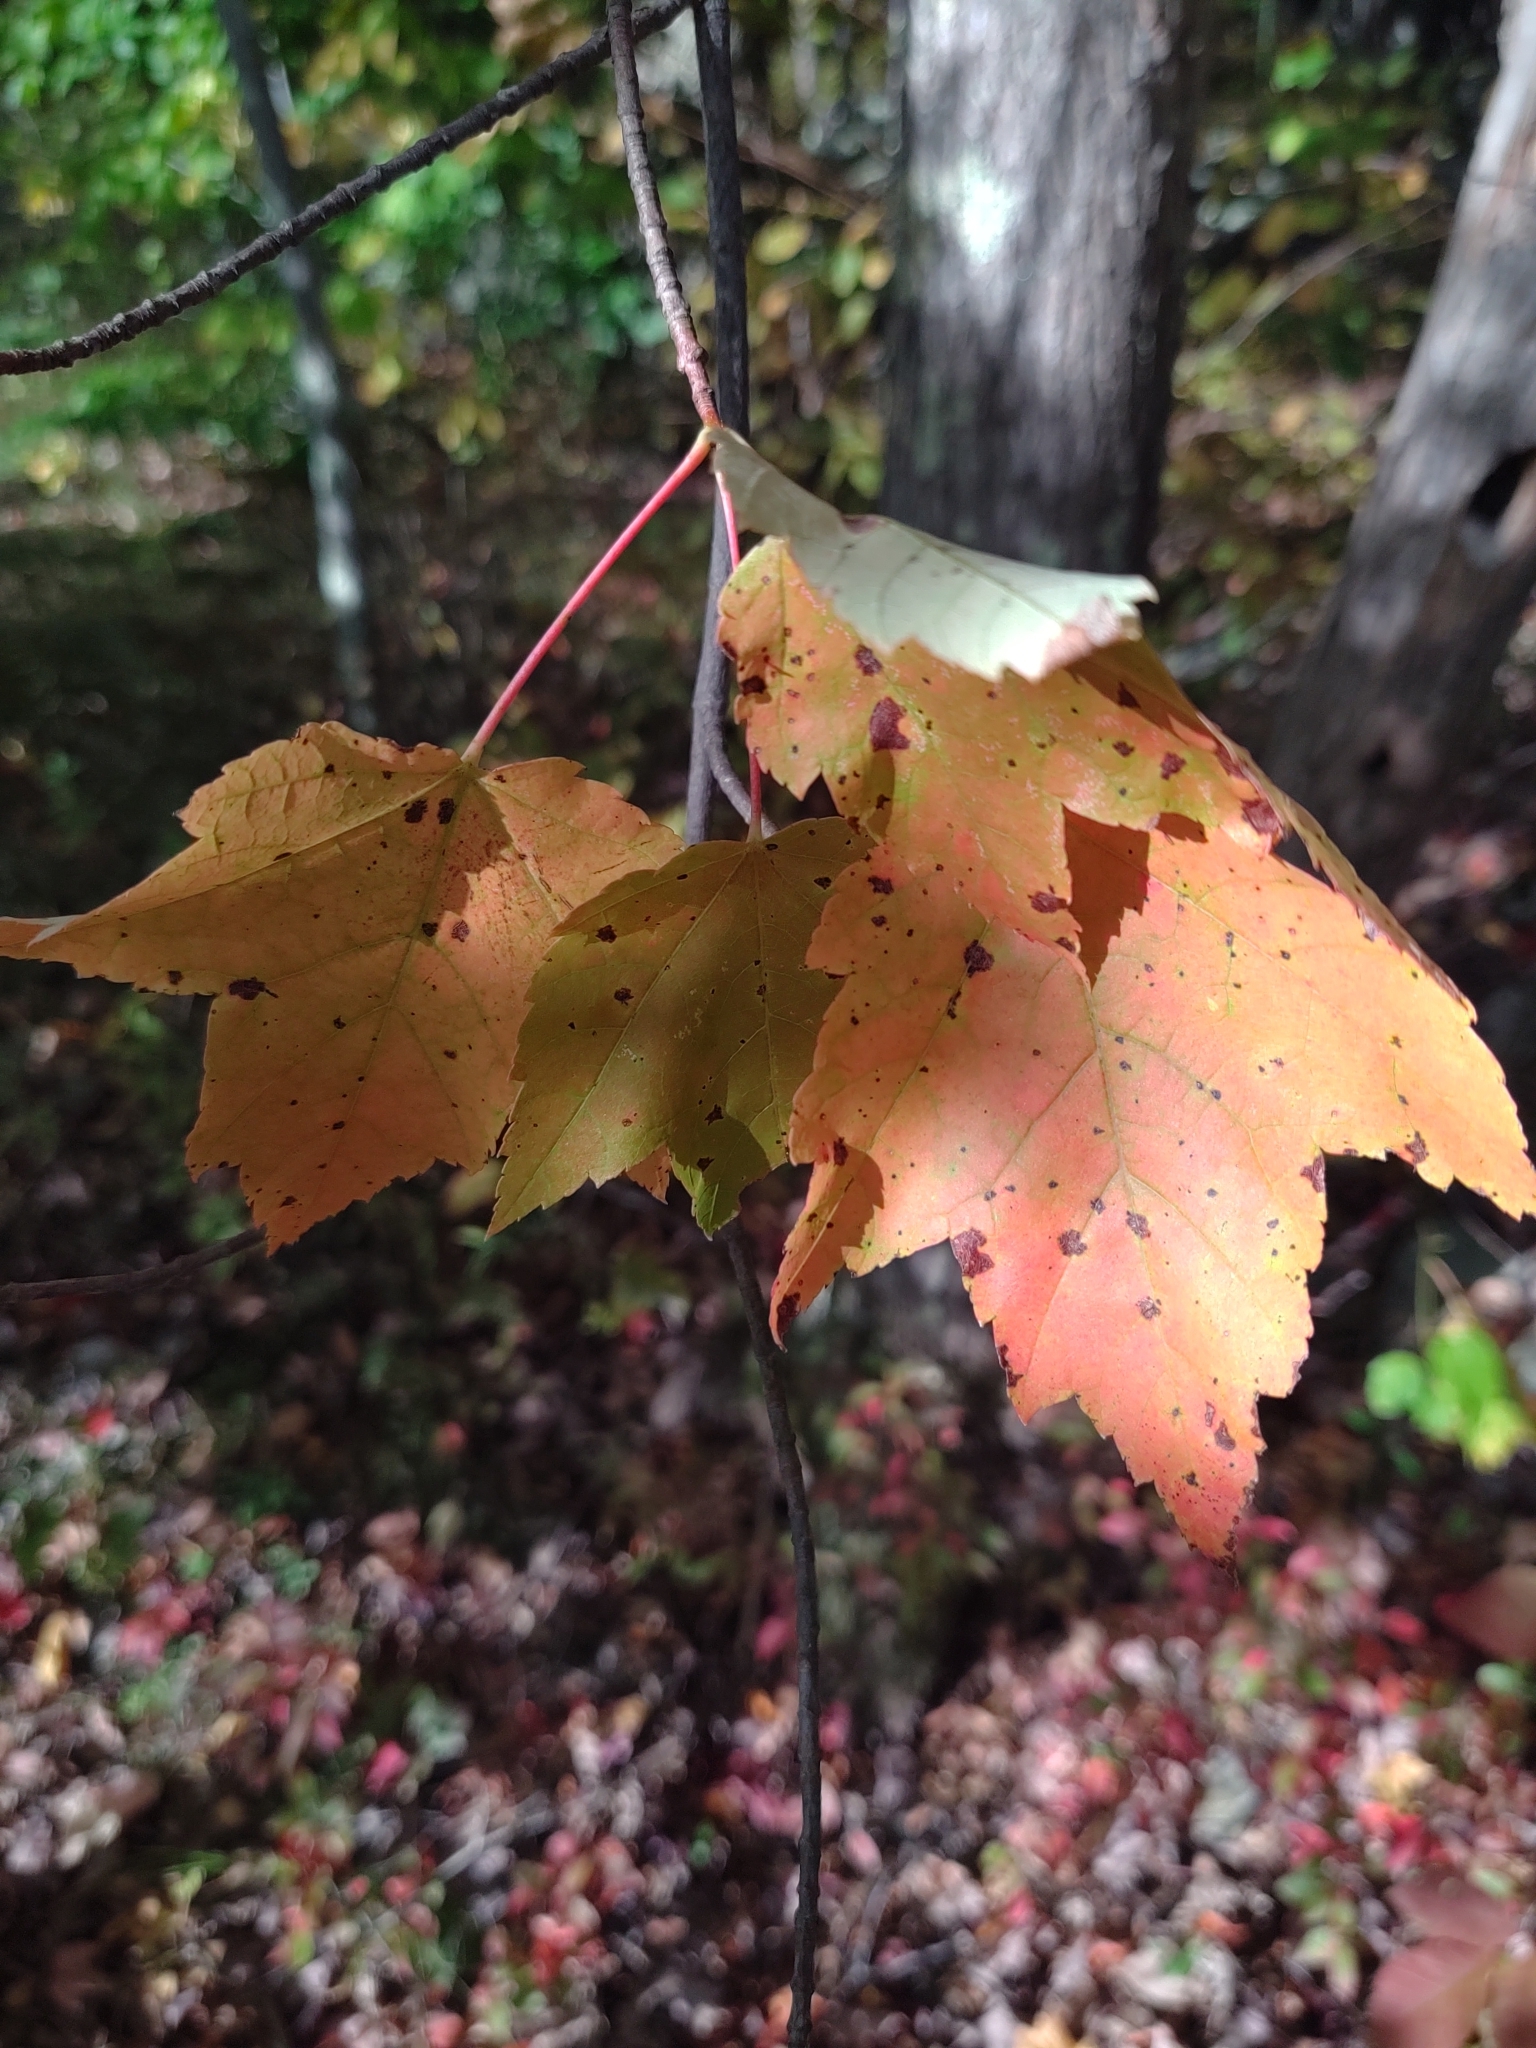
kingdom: Plantae
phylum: Tracheophyta
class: Magnoliopsida
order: Sapindales
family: Sapindaceae
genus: Acer
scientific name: Acer rubrum
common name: Red maple
